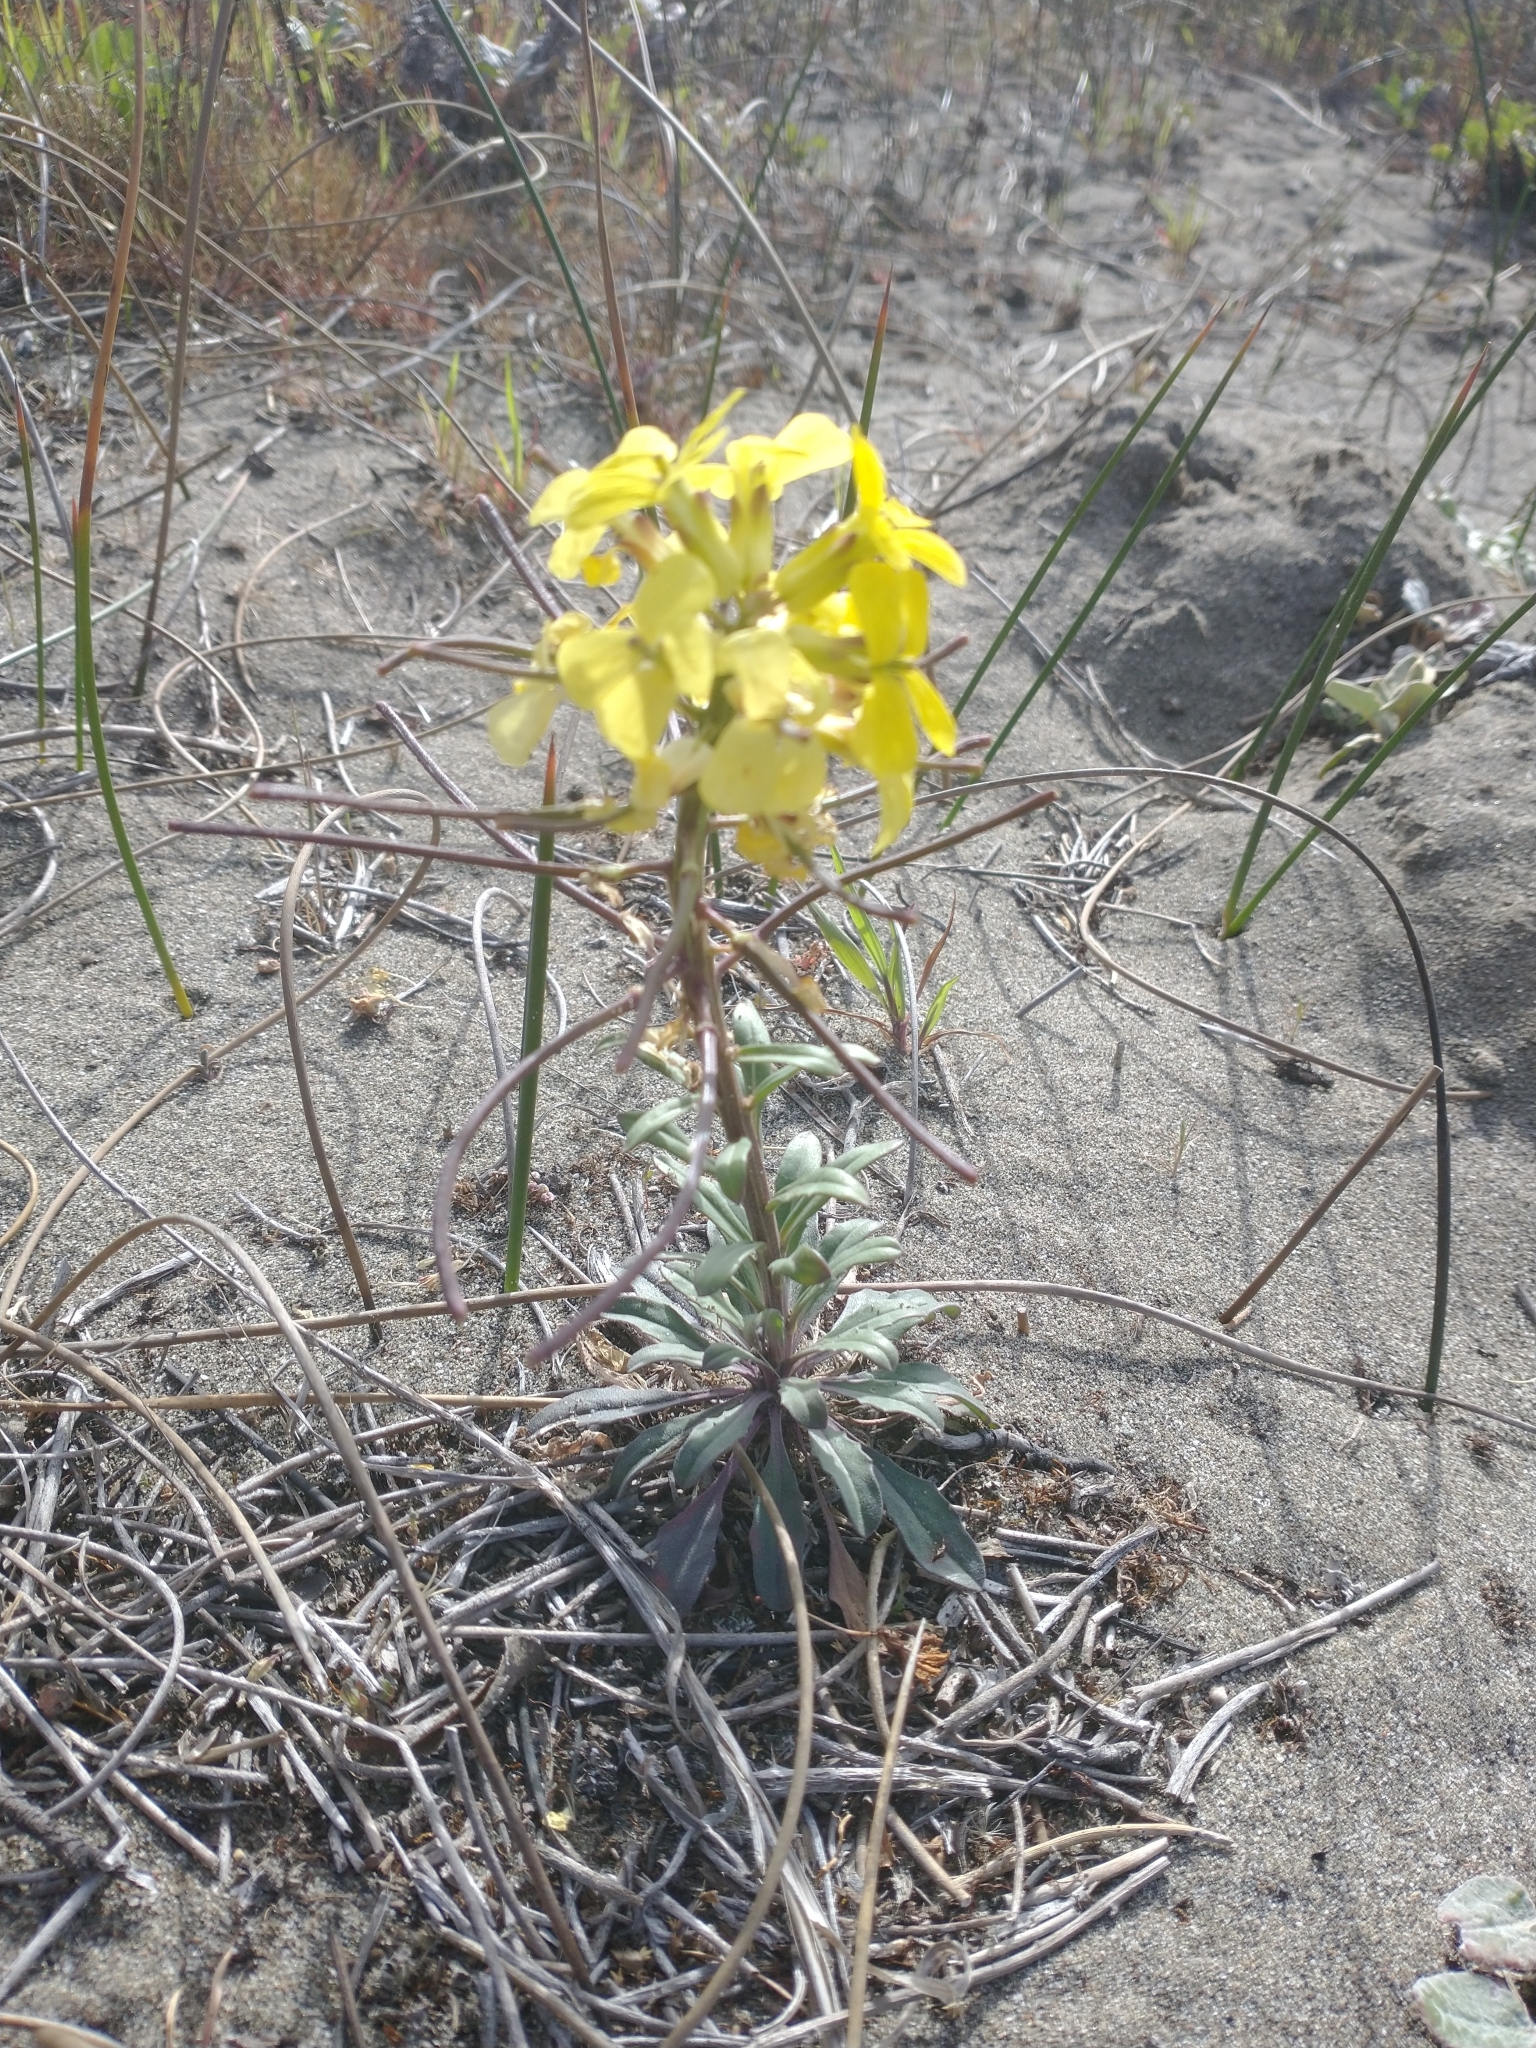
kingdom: Plantae
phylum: Tracheophyta
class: Magnoliopsida
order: Brassicales
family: Brassicaceae
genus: Erysimum
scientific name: Erysimum menziesii
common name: Menzies's wallflower
